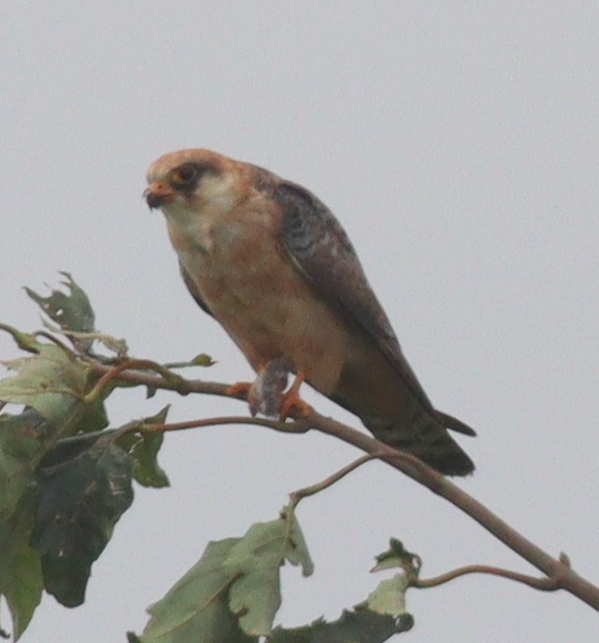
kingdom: Animalia
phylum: Chordata
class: Aves
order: Falconiformes
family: Falconidae
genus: Falco
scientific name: Falco vespertinus
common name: Red-footed falcon
